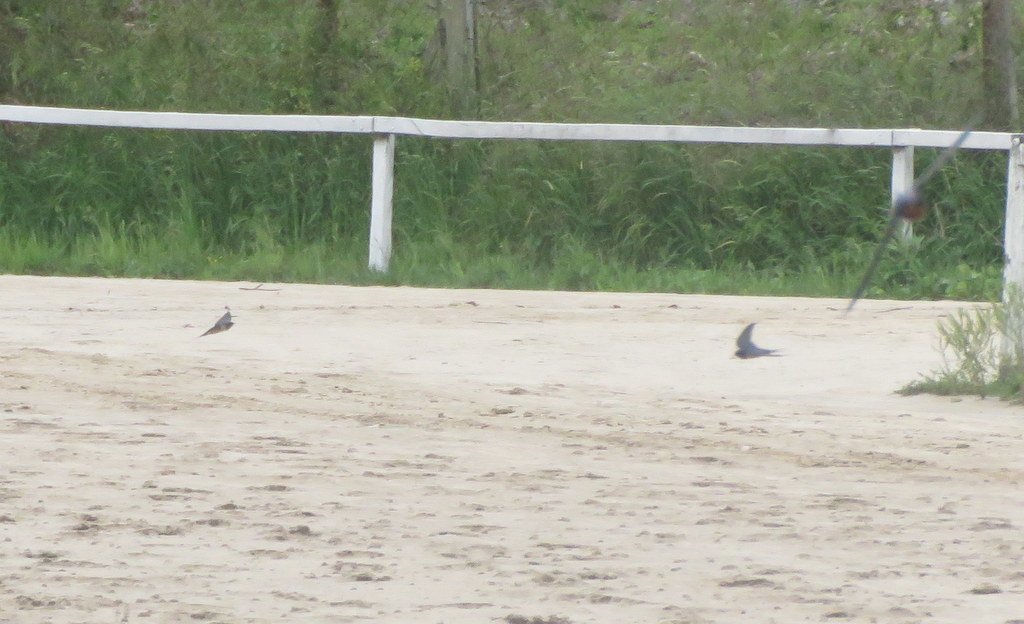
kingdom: Animalia
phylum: Chordata
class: Aves
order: Passeriformes
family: Hirundinidae
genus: Hirundo
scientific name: Hirundo rustica
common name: Barn swallow
